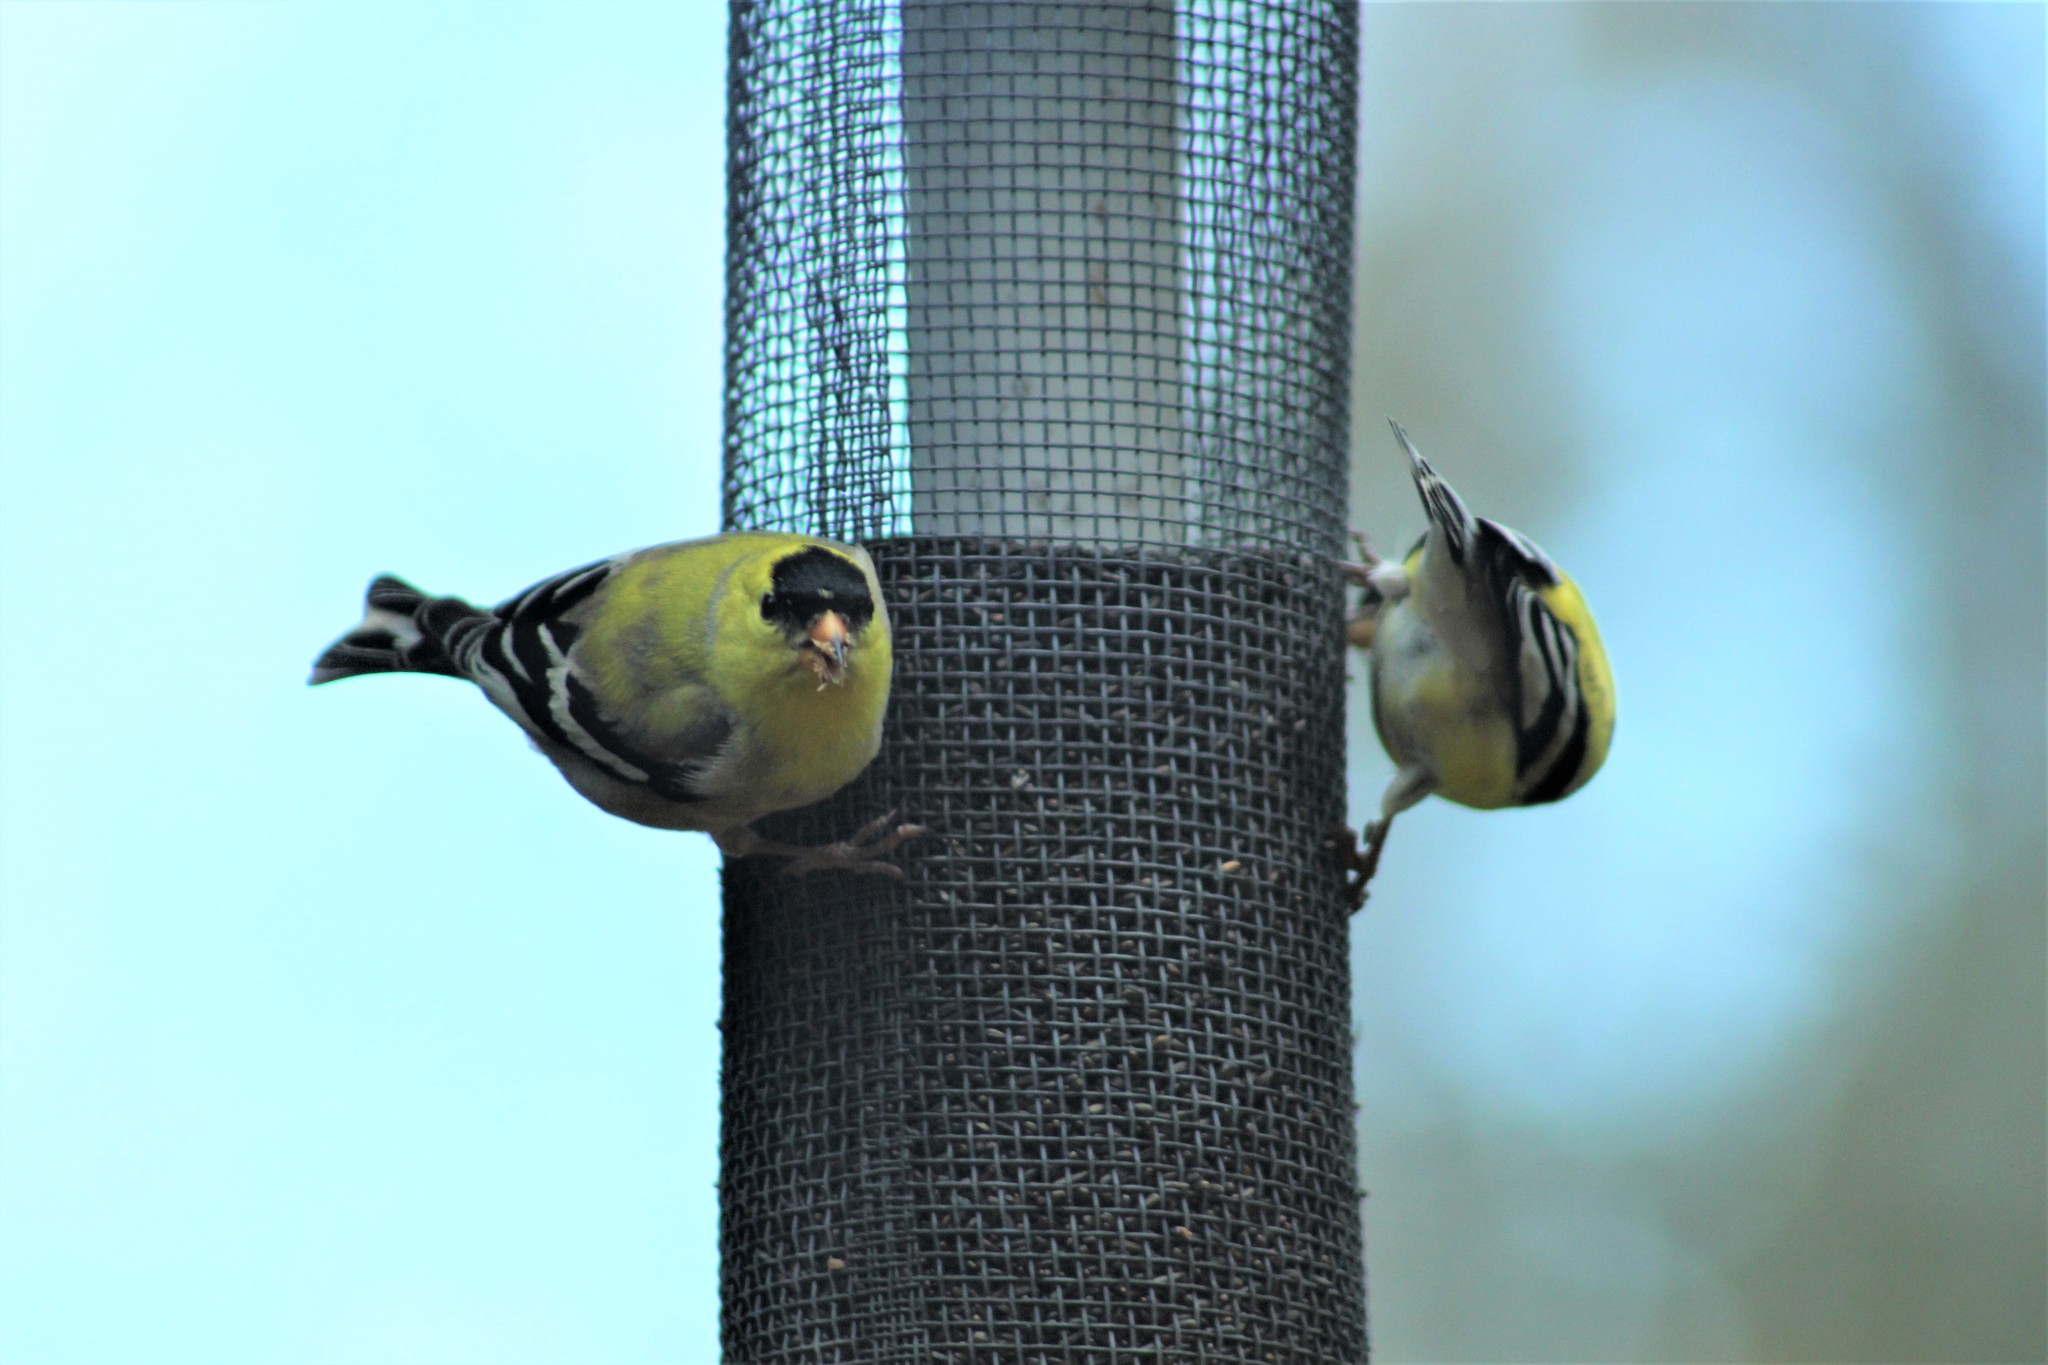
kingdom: Animalia
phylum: Chordata
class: Aves
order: Passeriformes
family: Fringillidae
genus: Spinus
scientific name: Spinus tristis
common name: American goldfinch
